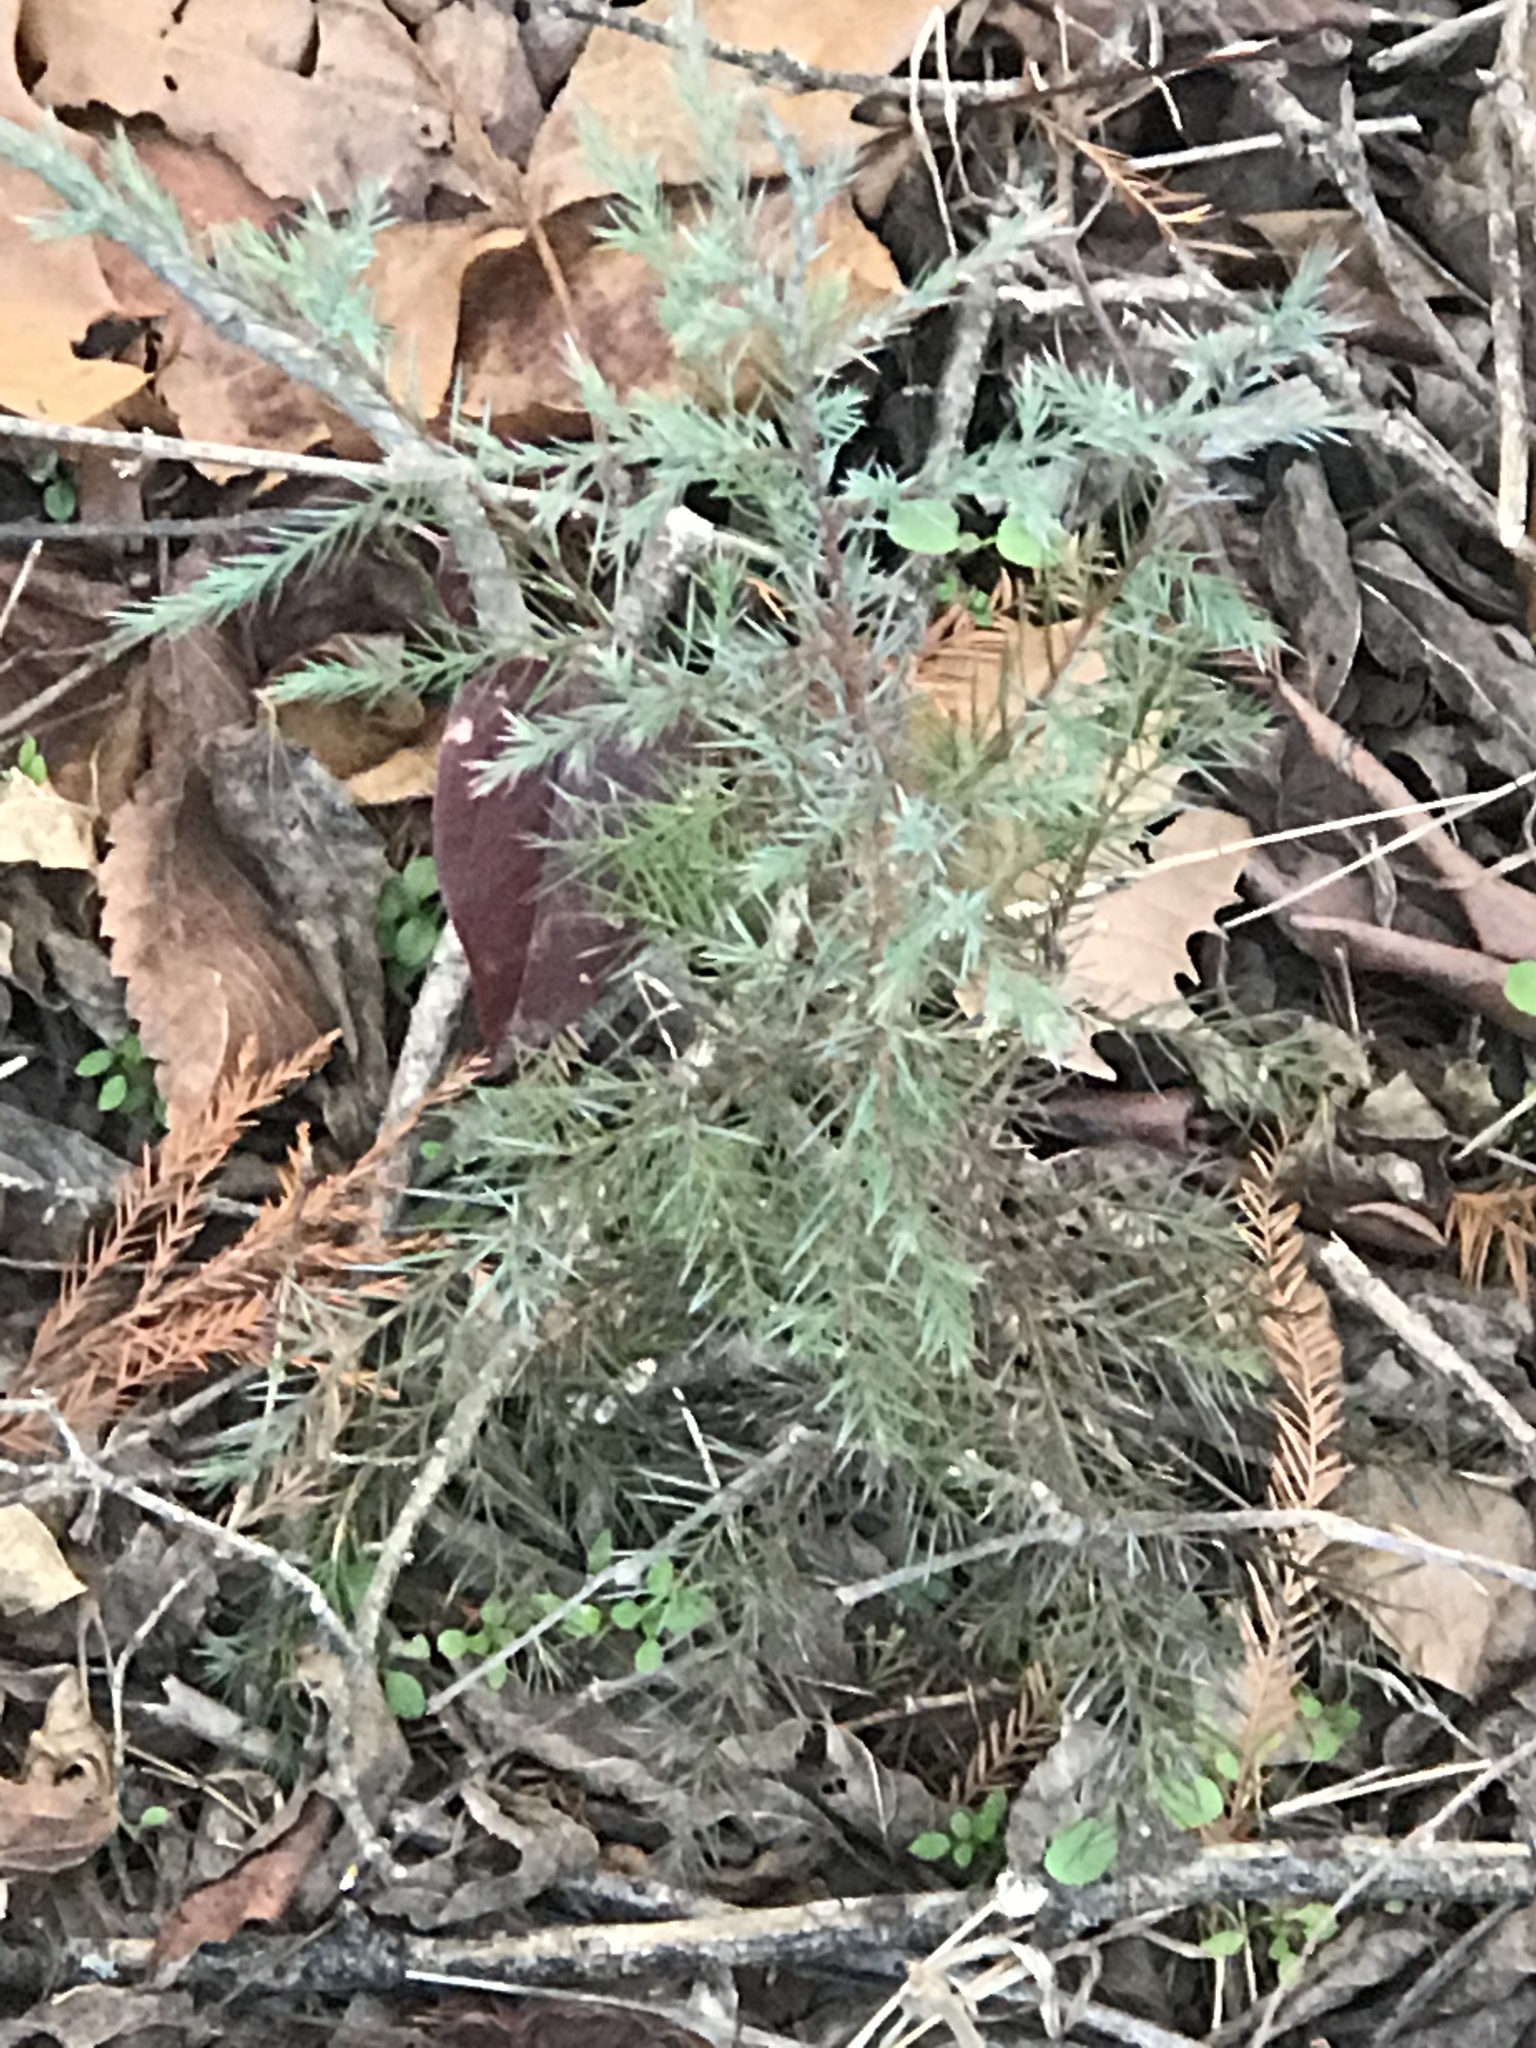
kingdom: Plantae
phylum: Tracheophyta
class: Pinopsida
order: Pinales
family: Cupressaceae
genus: Juniperus
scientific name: Juniperus virginiana
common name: Red juniper
